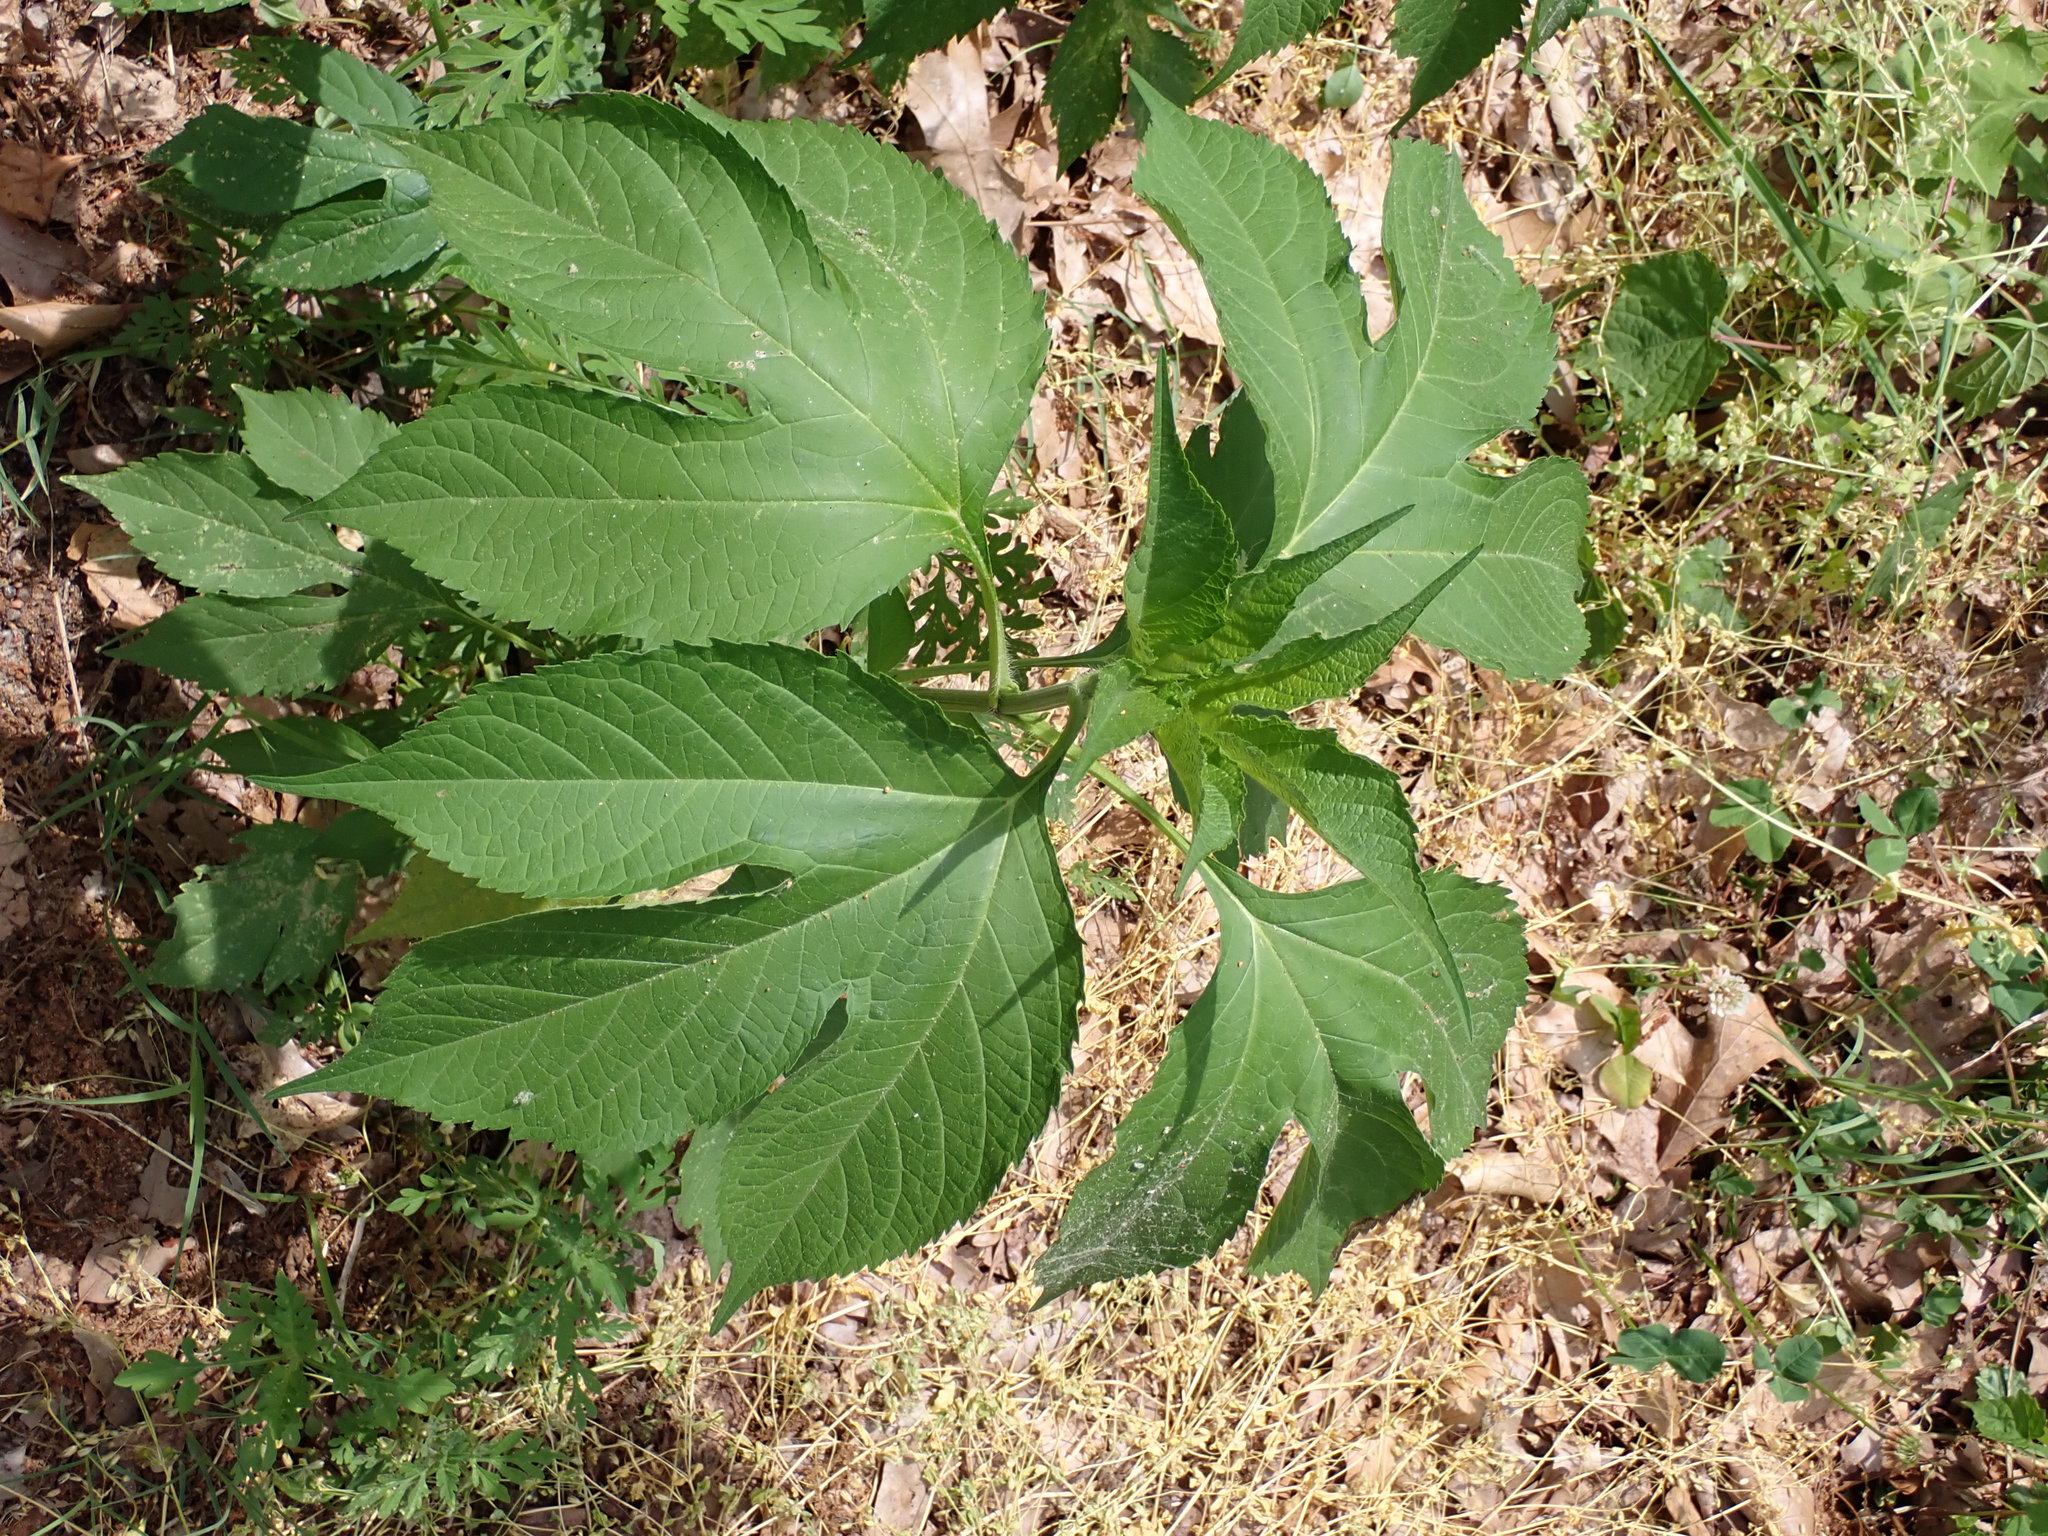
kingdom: Plantae
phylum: Tracheophyta
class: Magnoliopsida
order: Asterales
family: Asteraceae
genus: Ambrosia
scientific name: Ambrosia trifida
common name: Giant ragweed
